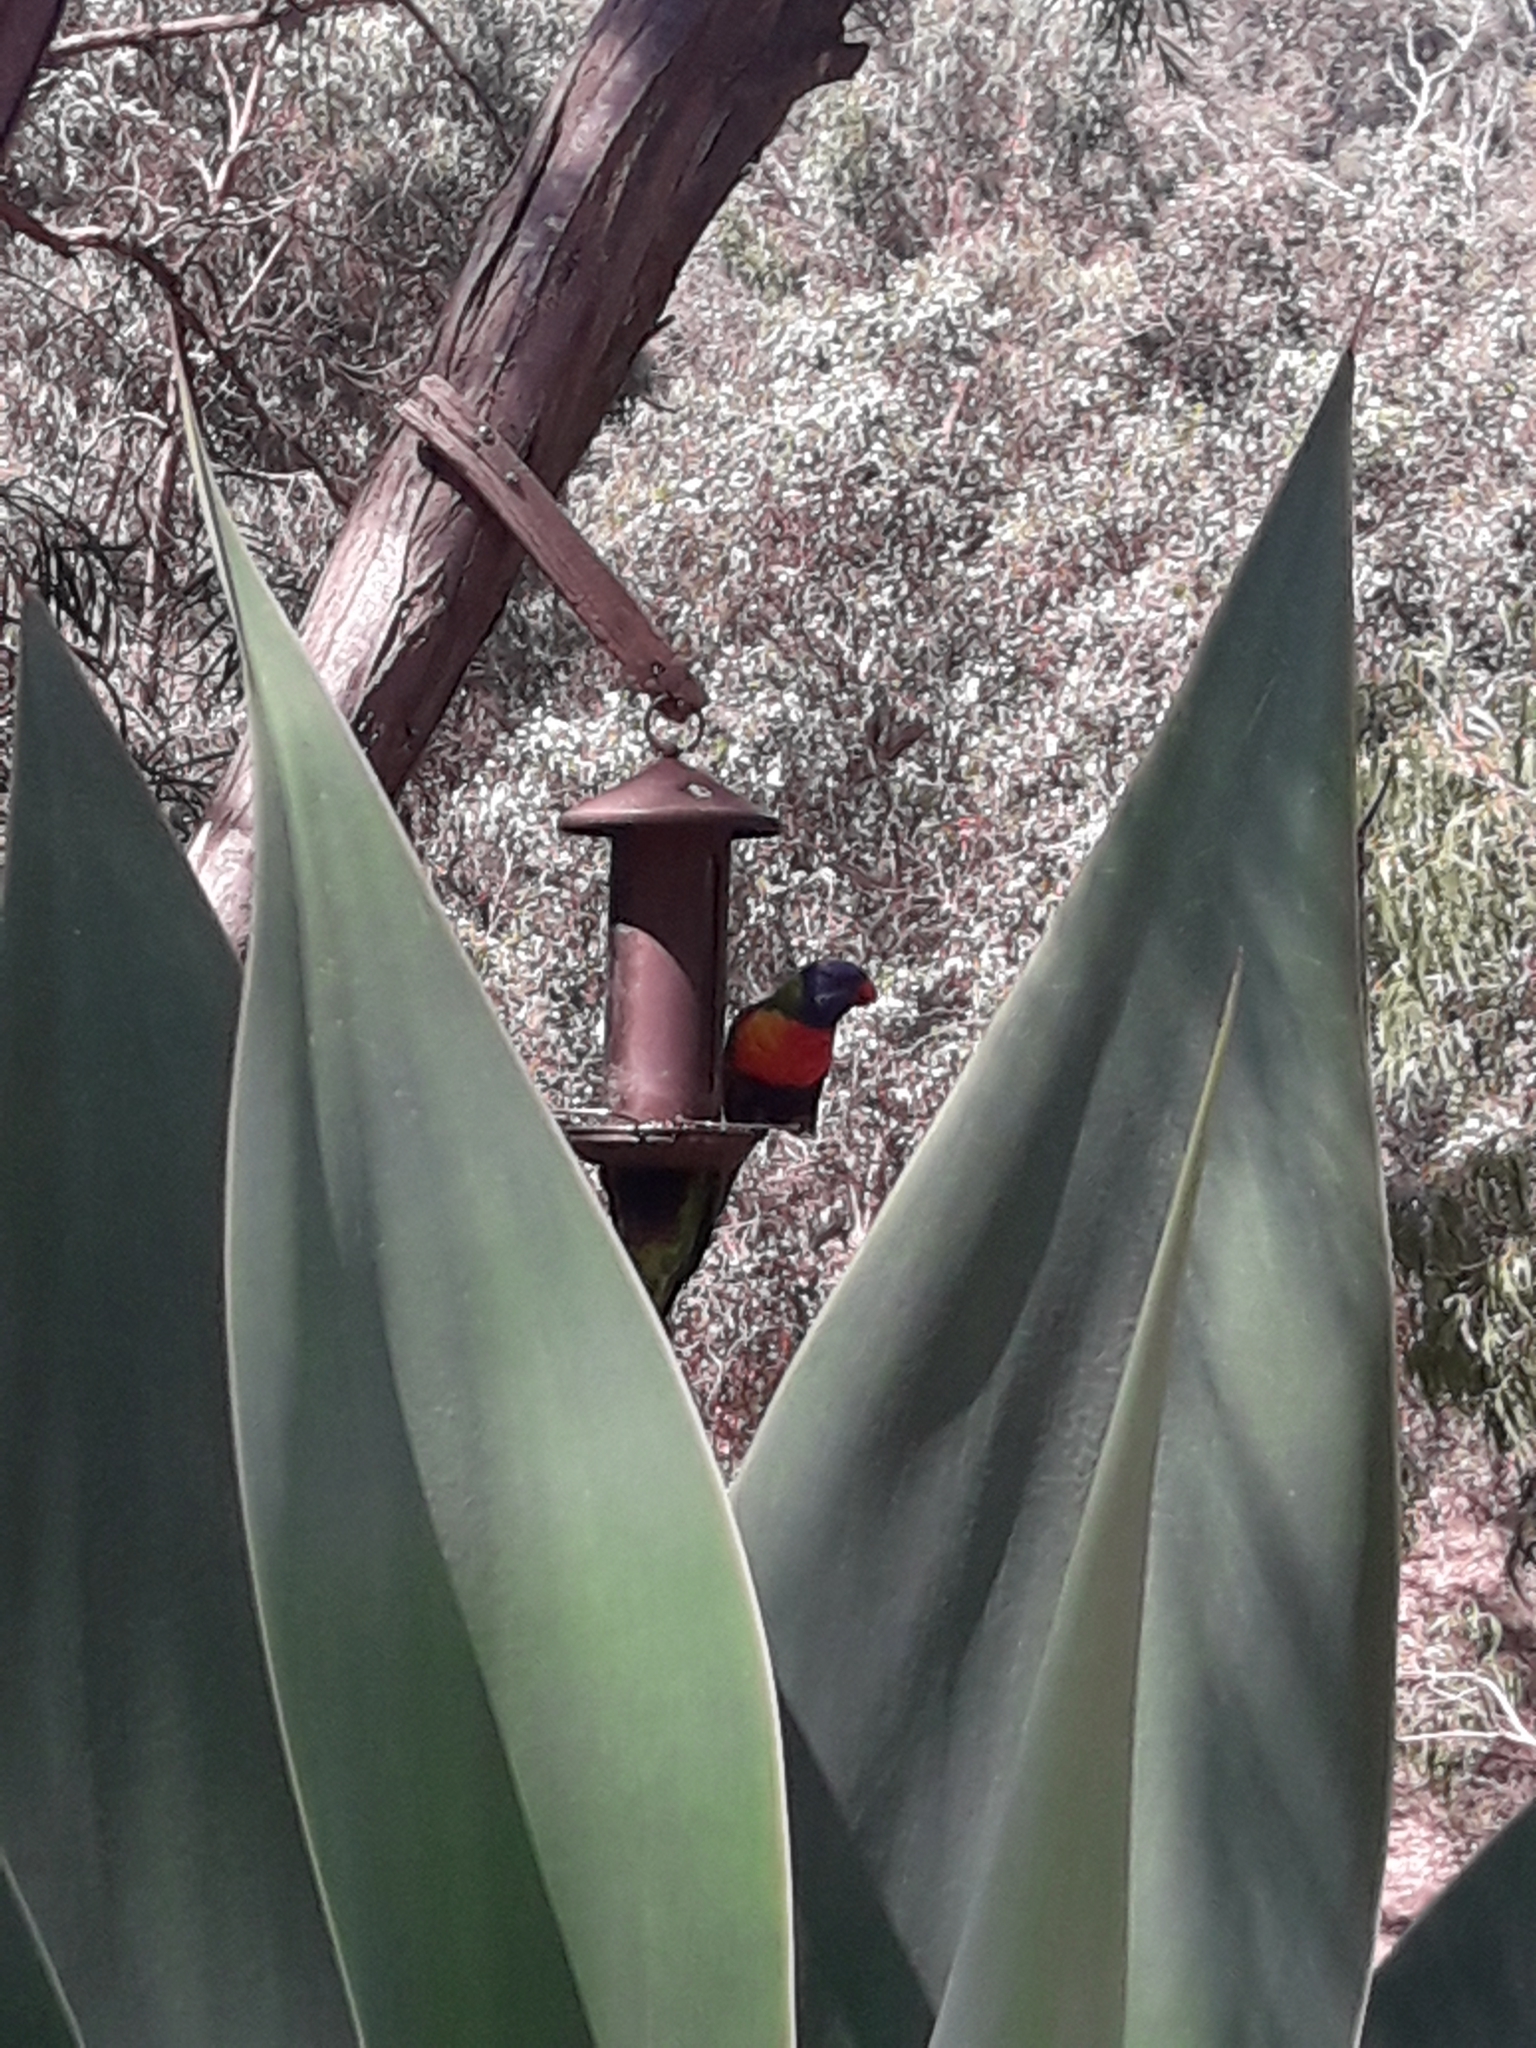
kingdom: Animalia
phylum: Chordata
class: Aves
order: Psittaciformes
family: Psittacidae
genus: Trichoglossus
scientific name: Trichoglossus haematodus
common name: Coconut lorikeet
